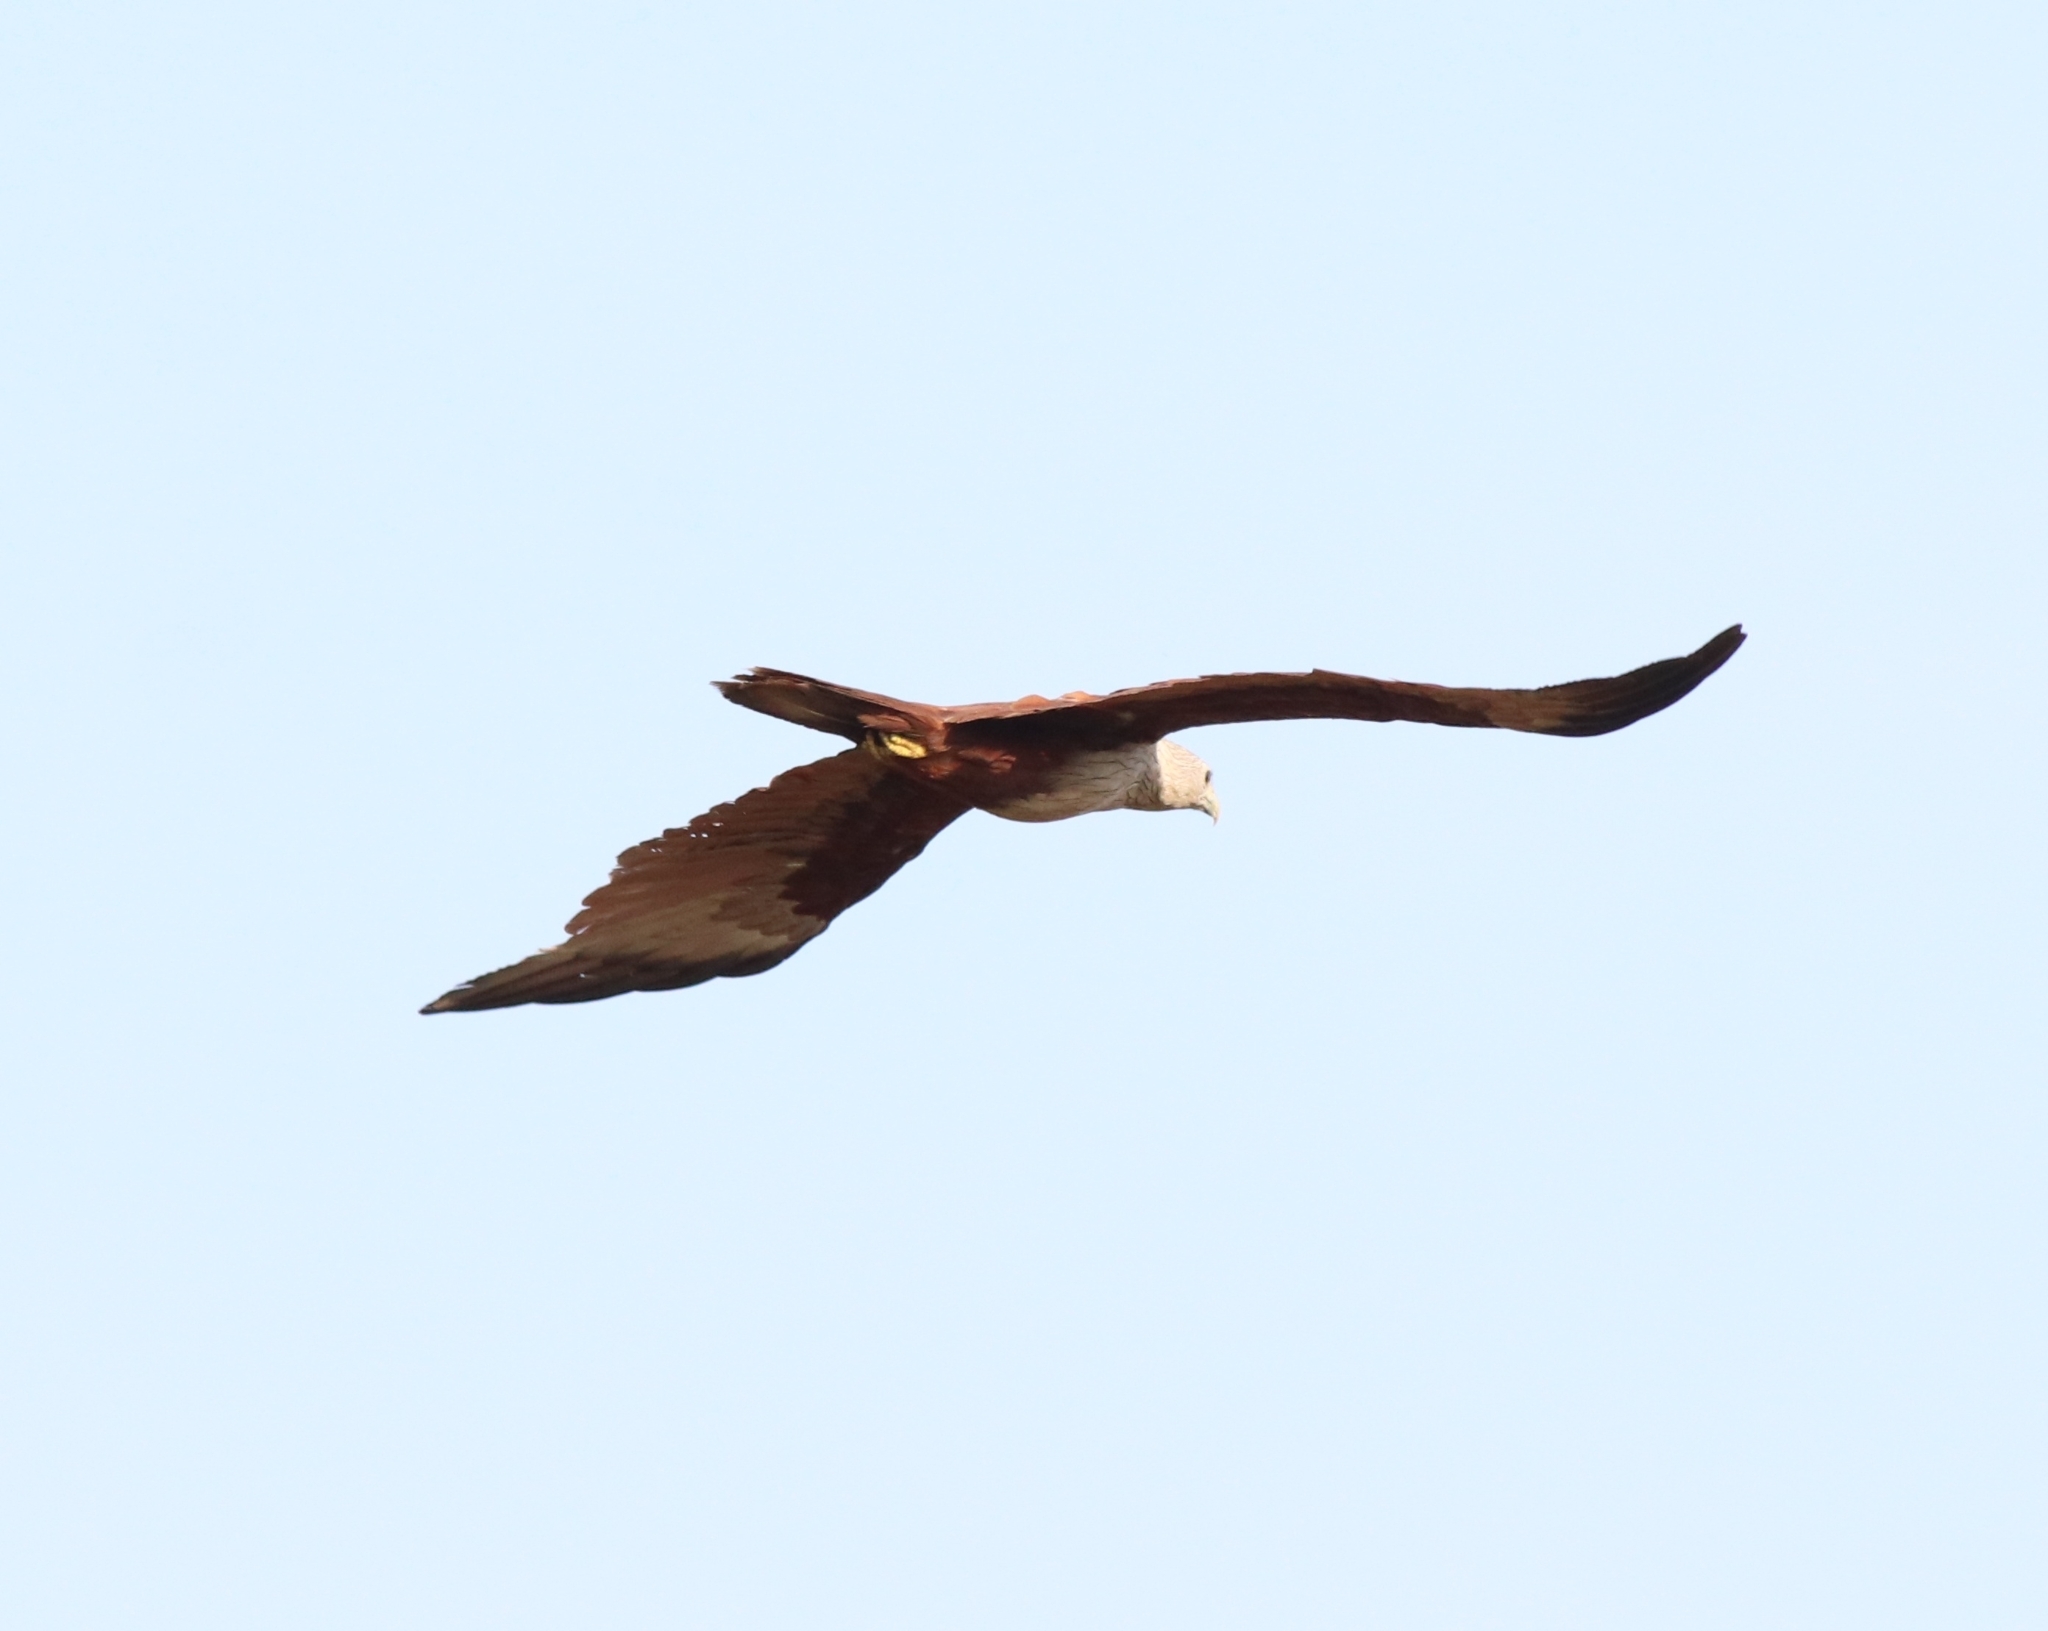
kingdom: Animalia
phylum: Chordata
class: Aves
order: Accipitriformes
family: Accipitridae
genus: Haliastur
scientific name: Haliastur indus
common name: Brahminy kite
